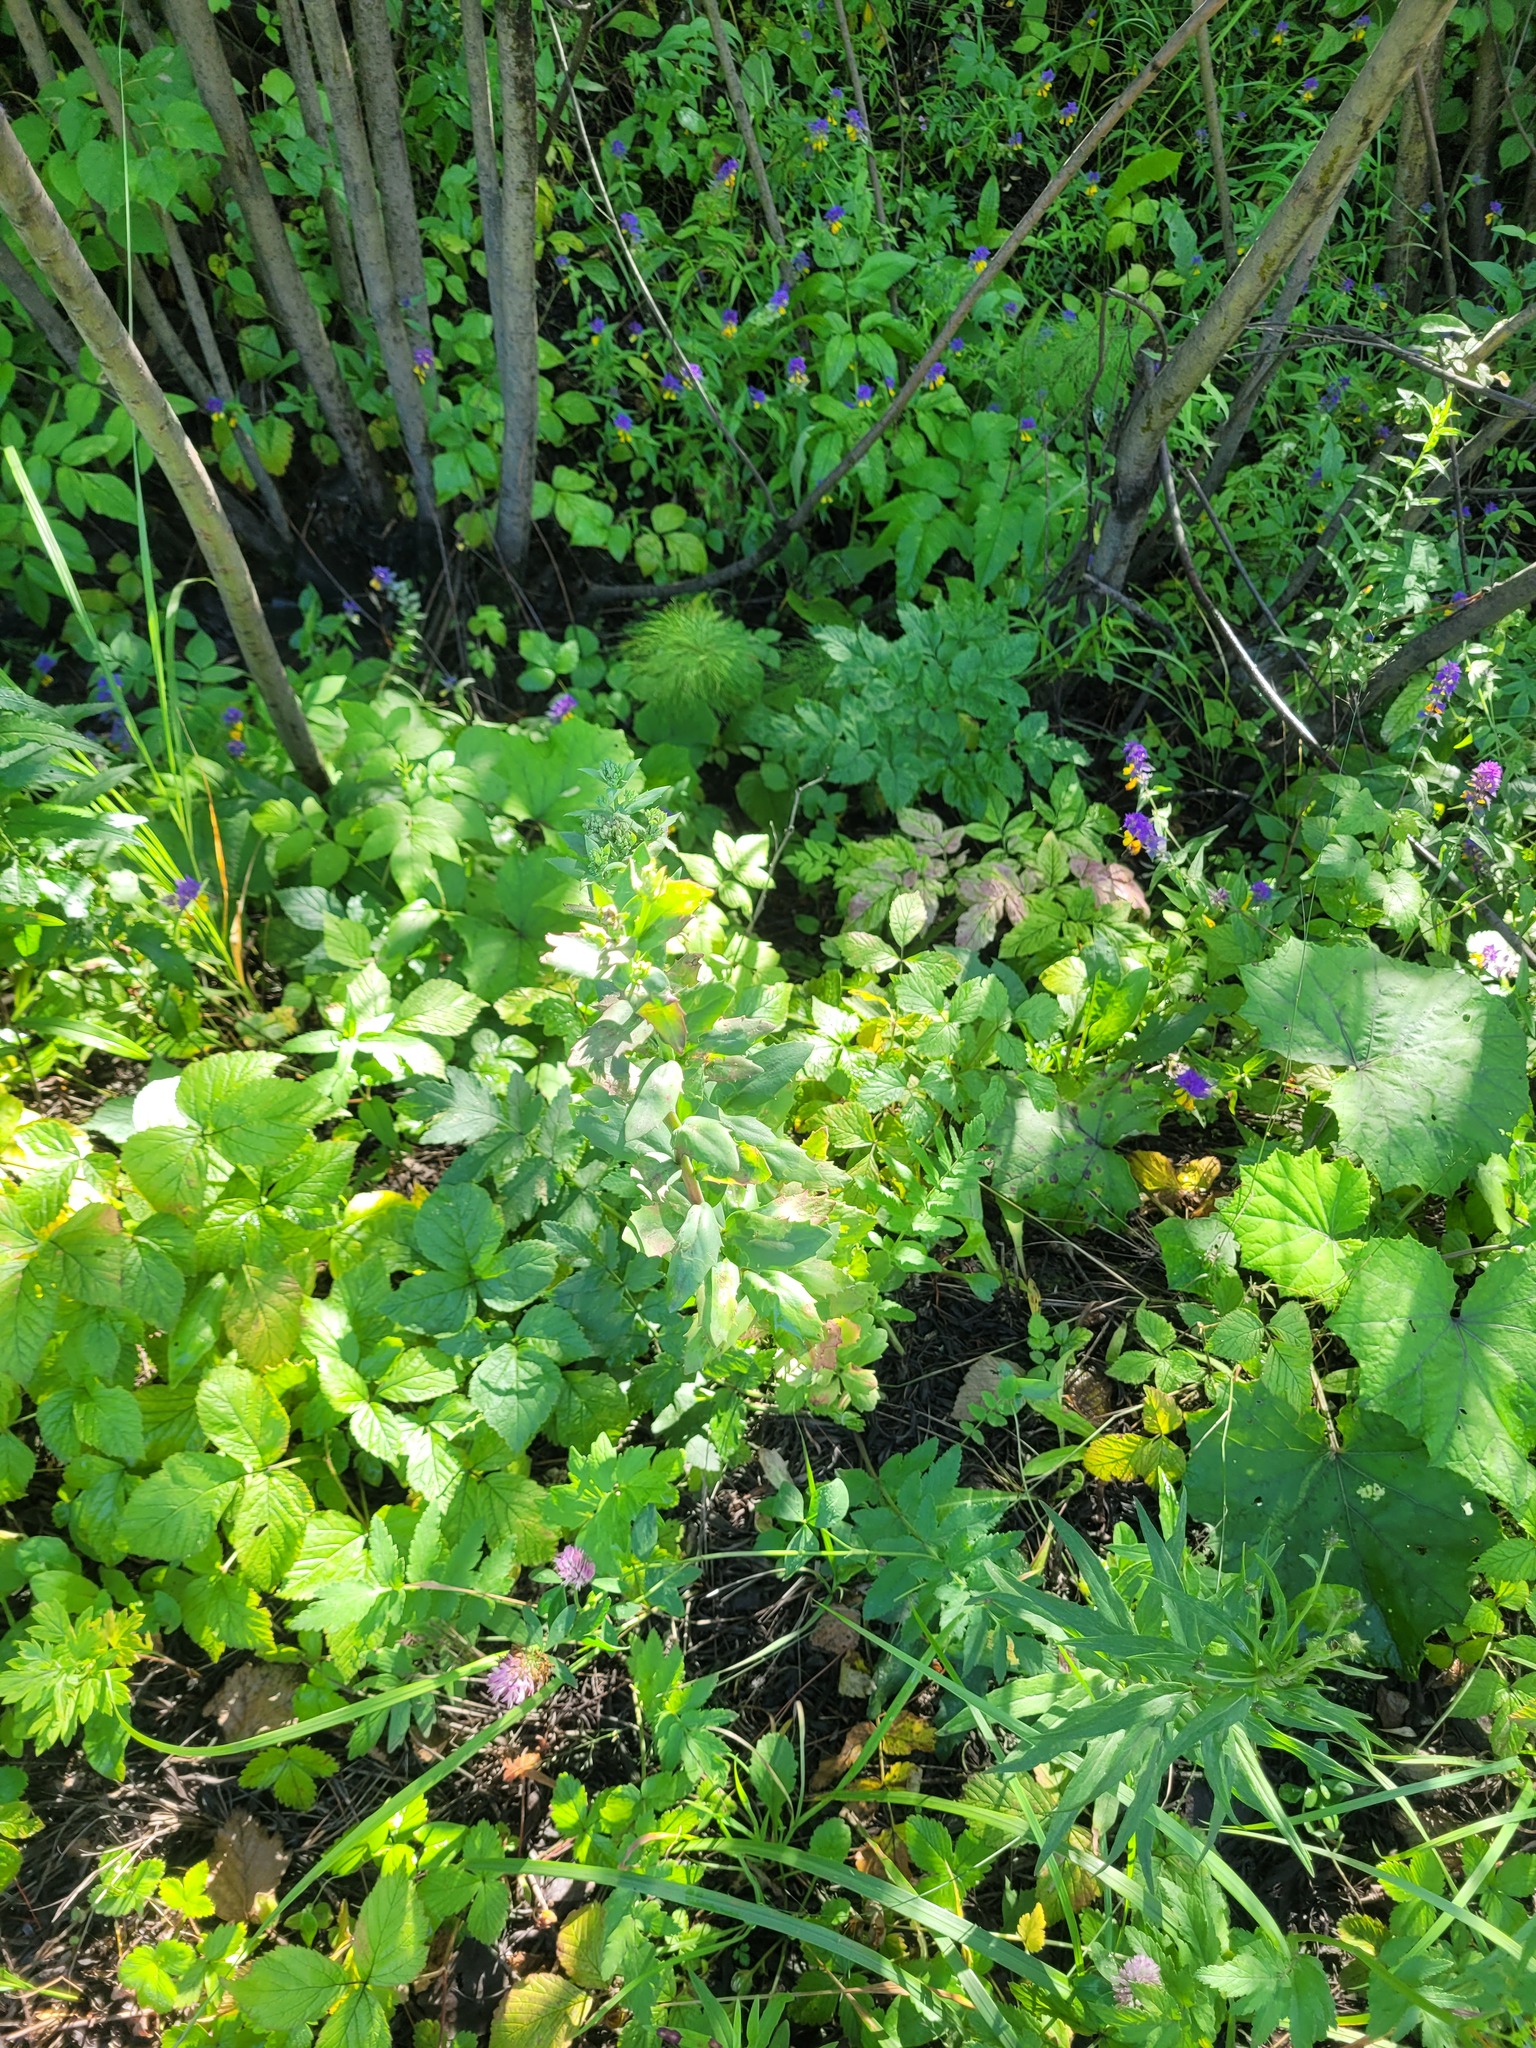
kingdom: Plantae
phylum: Tracheophyta
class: Magnoliopsida
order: Saxifragales
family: Crassulaceae
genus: Hylotelephium
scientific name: Hylotelephium telephium
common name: Live-forever
